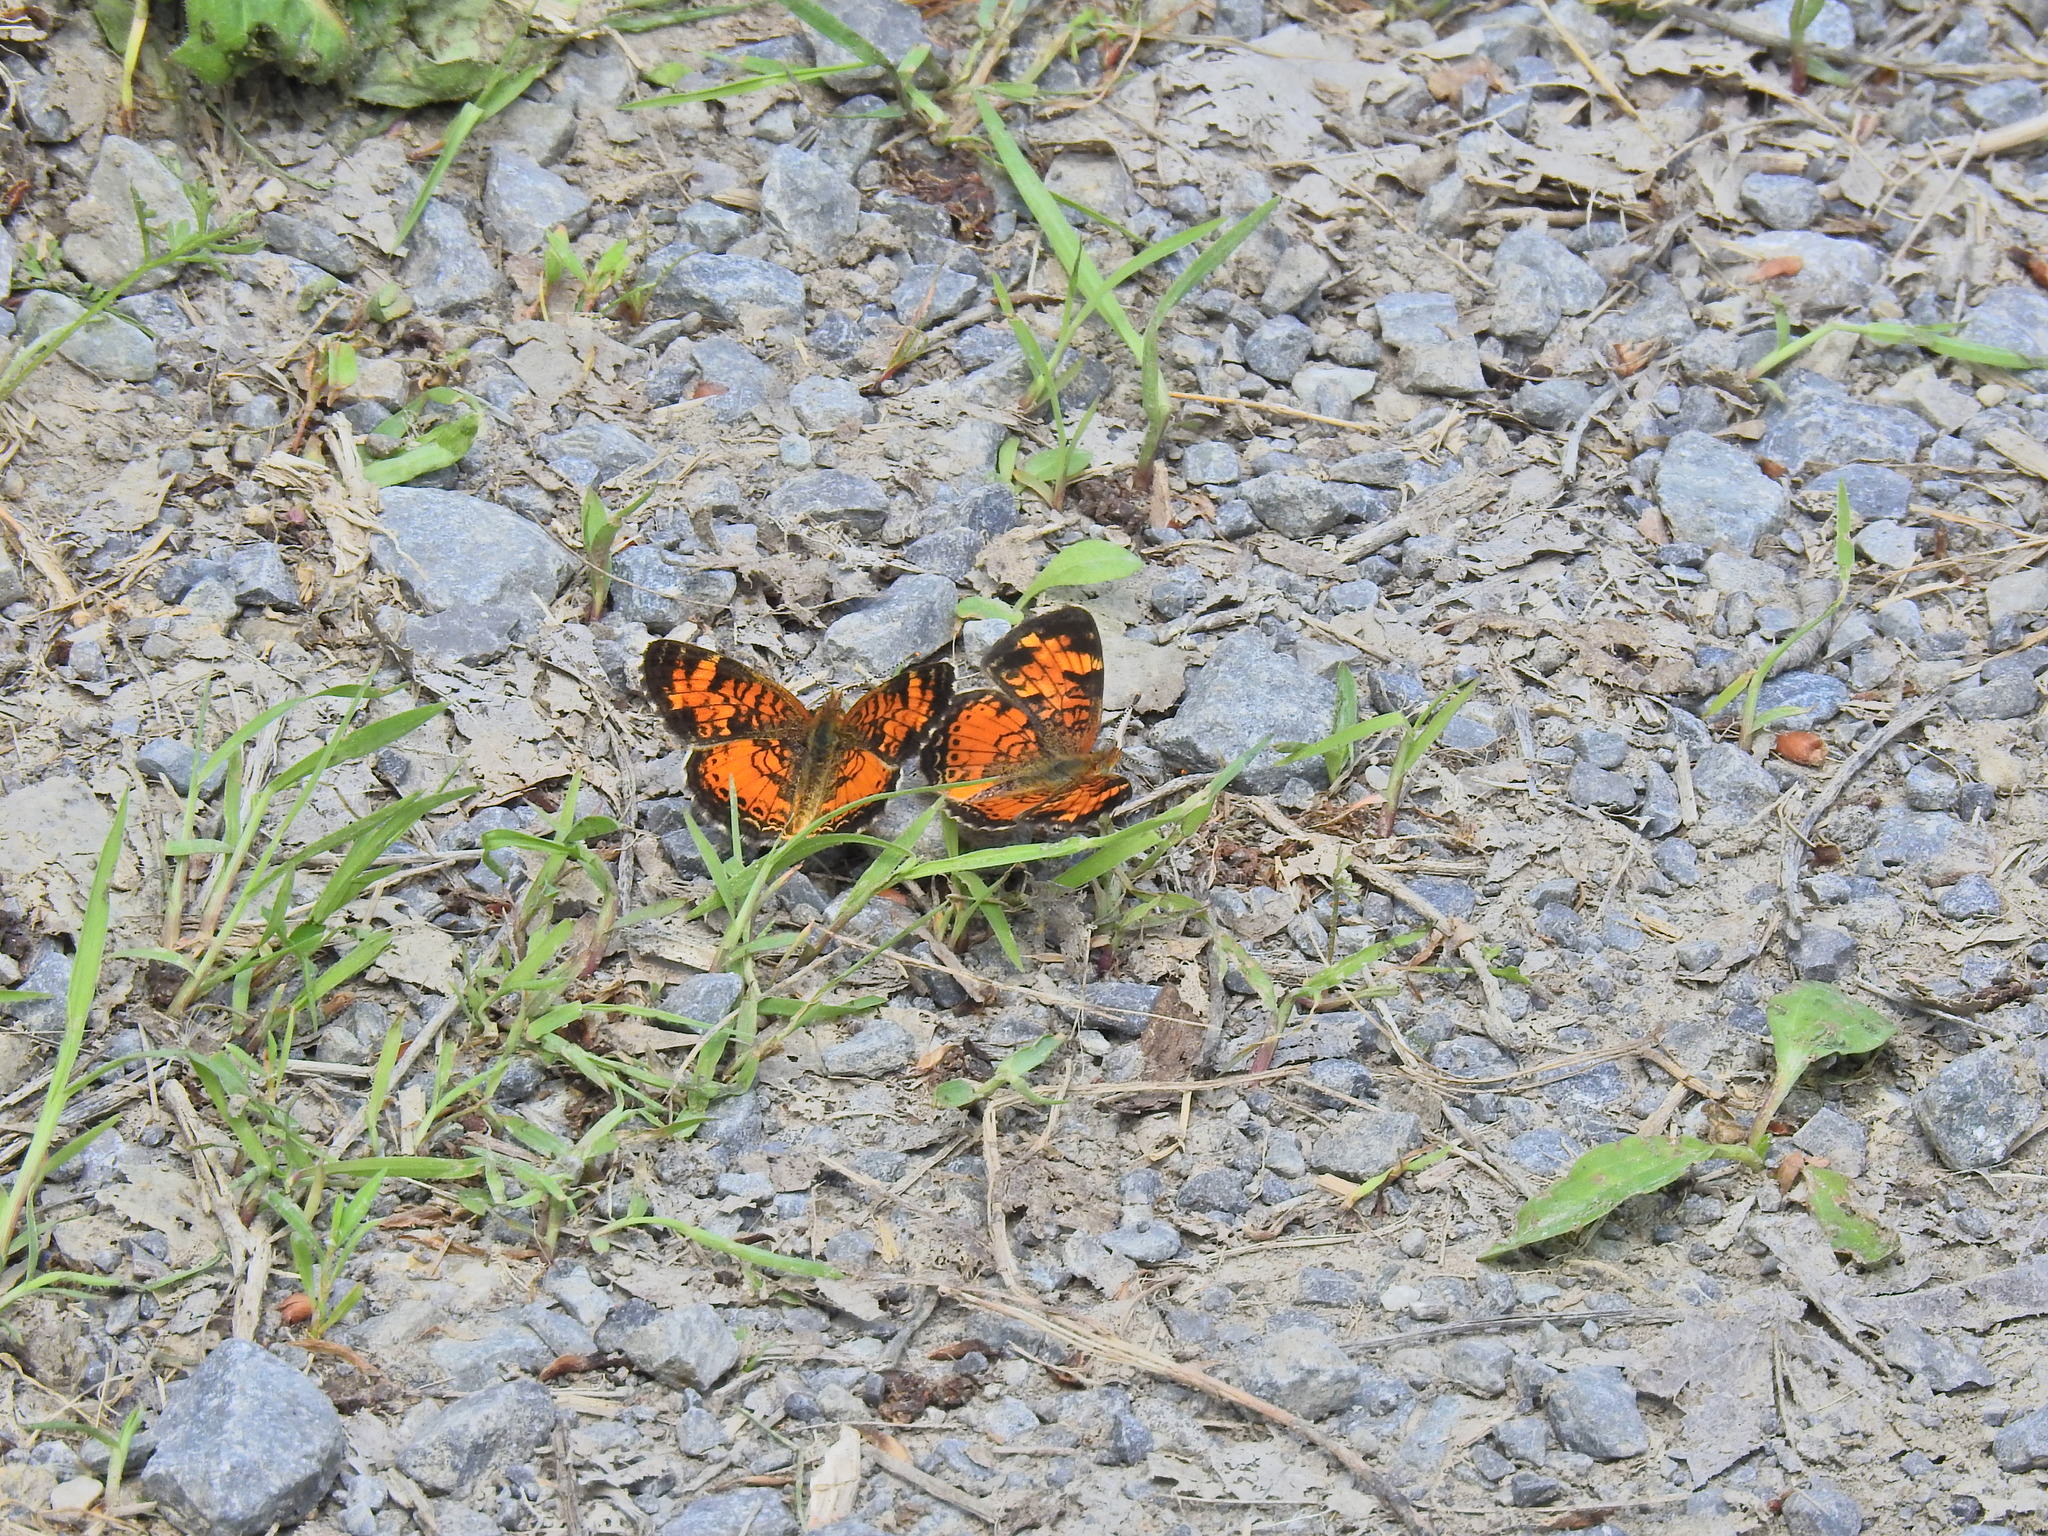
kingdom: Animalia
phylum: Arthropoda
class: Insecta
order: Lepidoptera
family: Nymphalidae
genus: Phyciodes
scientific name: Phyciodes tharos
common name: Pearl crescent
